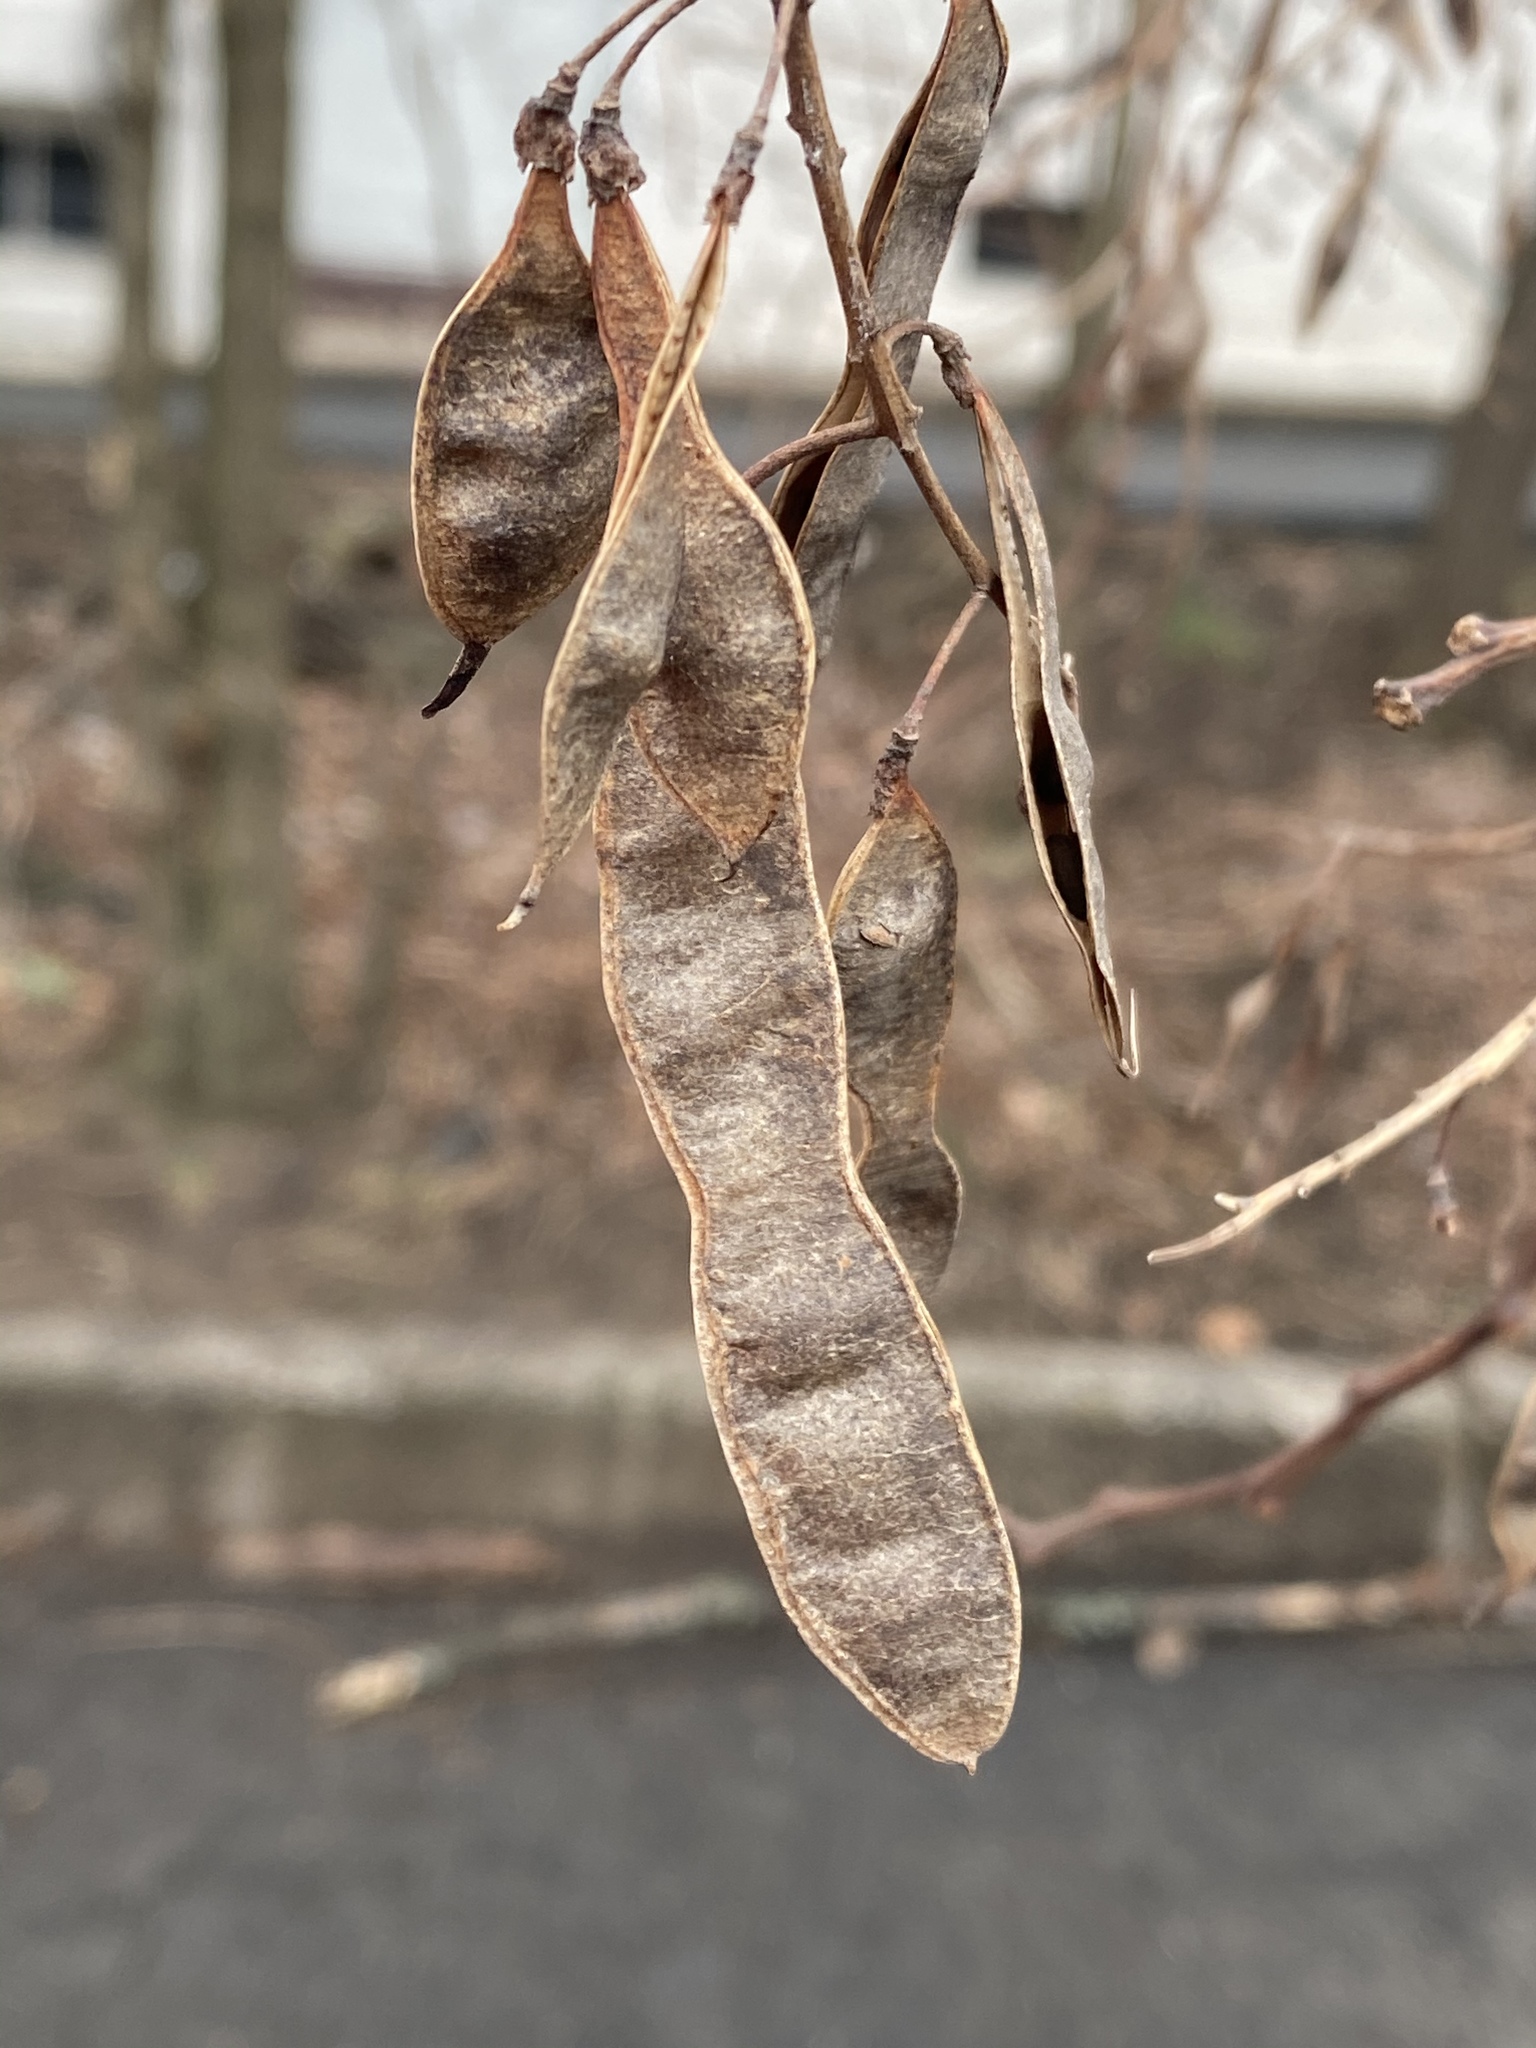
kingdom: Plantae
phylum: Tracheophyta
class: Magnoliopsida
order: Fabales
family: Fabaceae
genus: Robinia
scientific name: Robinia pseudoacacia
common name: Black locust
